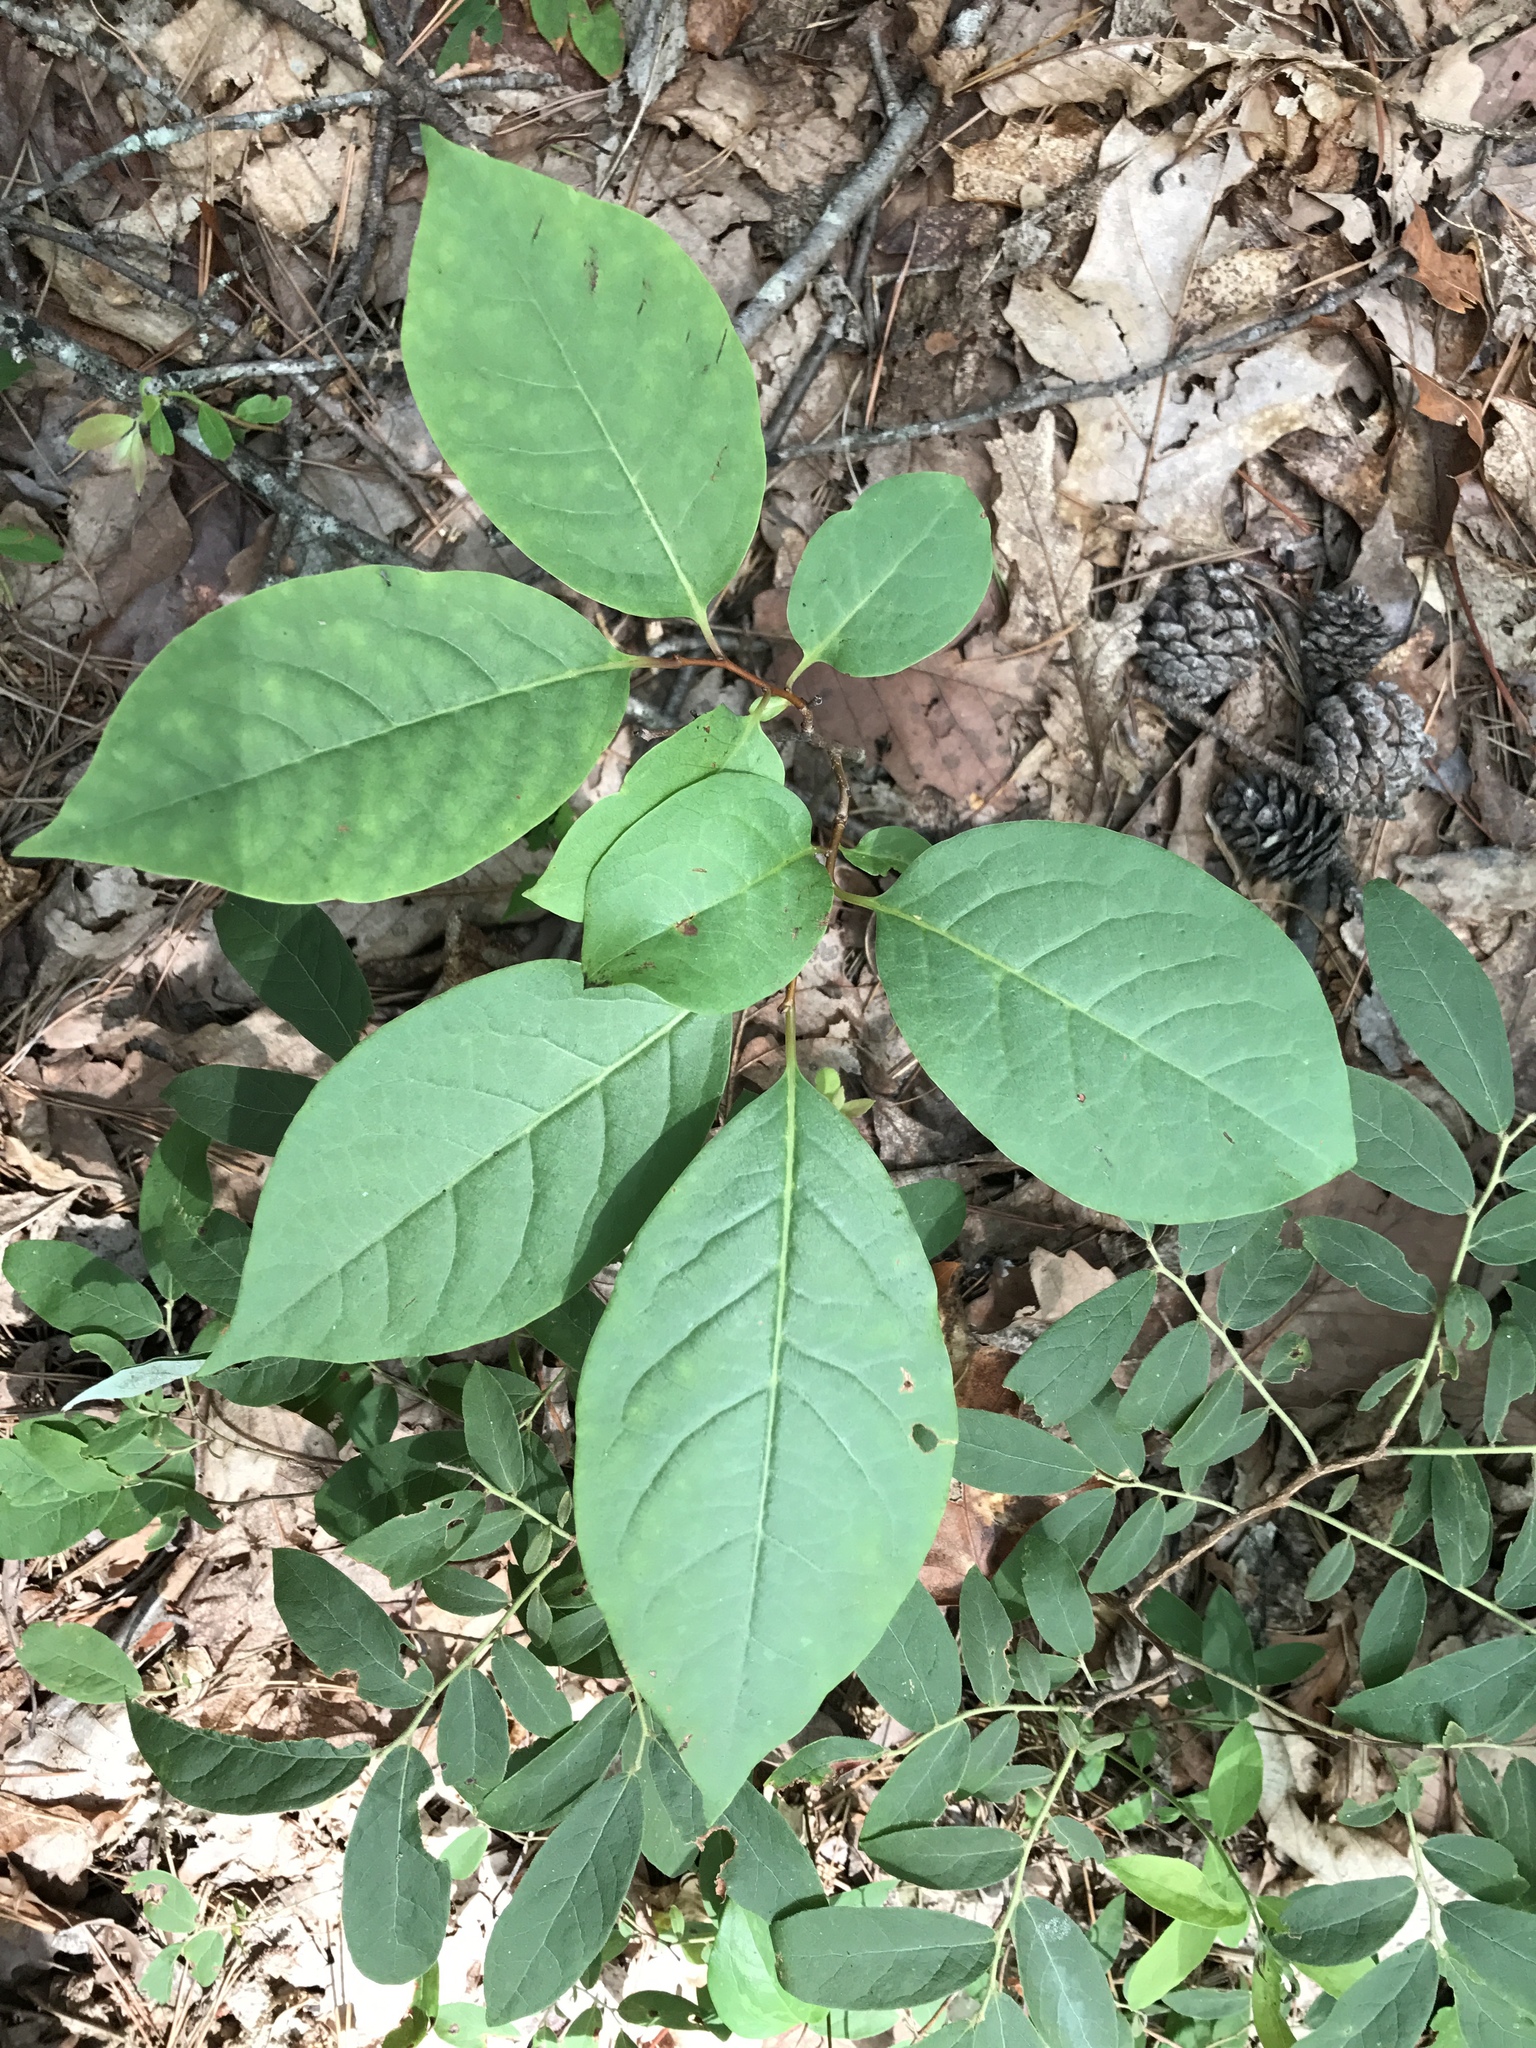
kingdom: Plantae
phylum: Tracheophyta
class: Magnoliopsida
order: Ericales
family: Ebenaceae
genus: Diospyros
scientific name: Diospyros virginiana
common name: Persimmon
